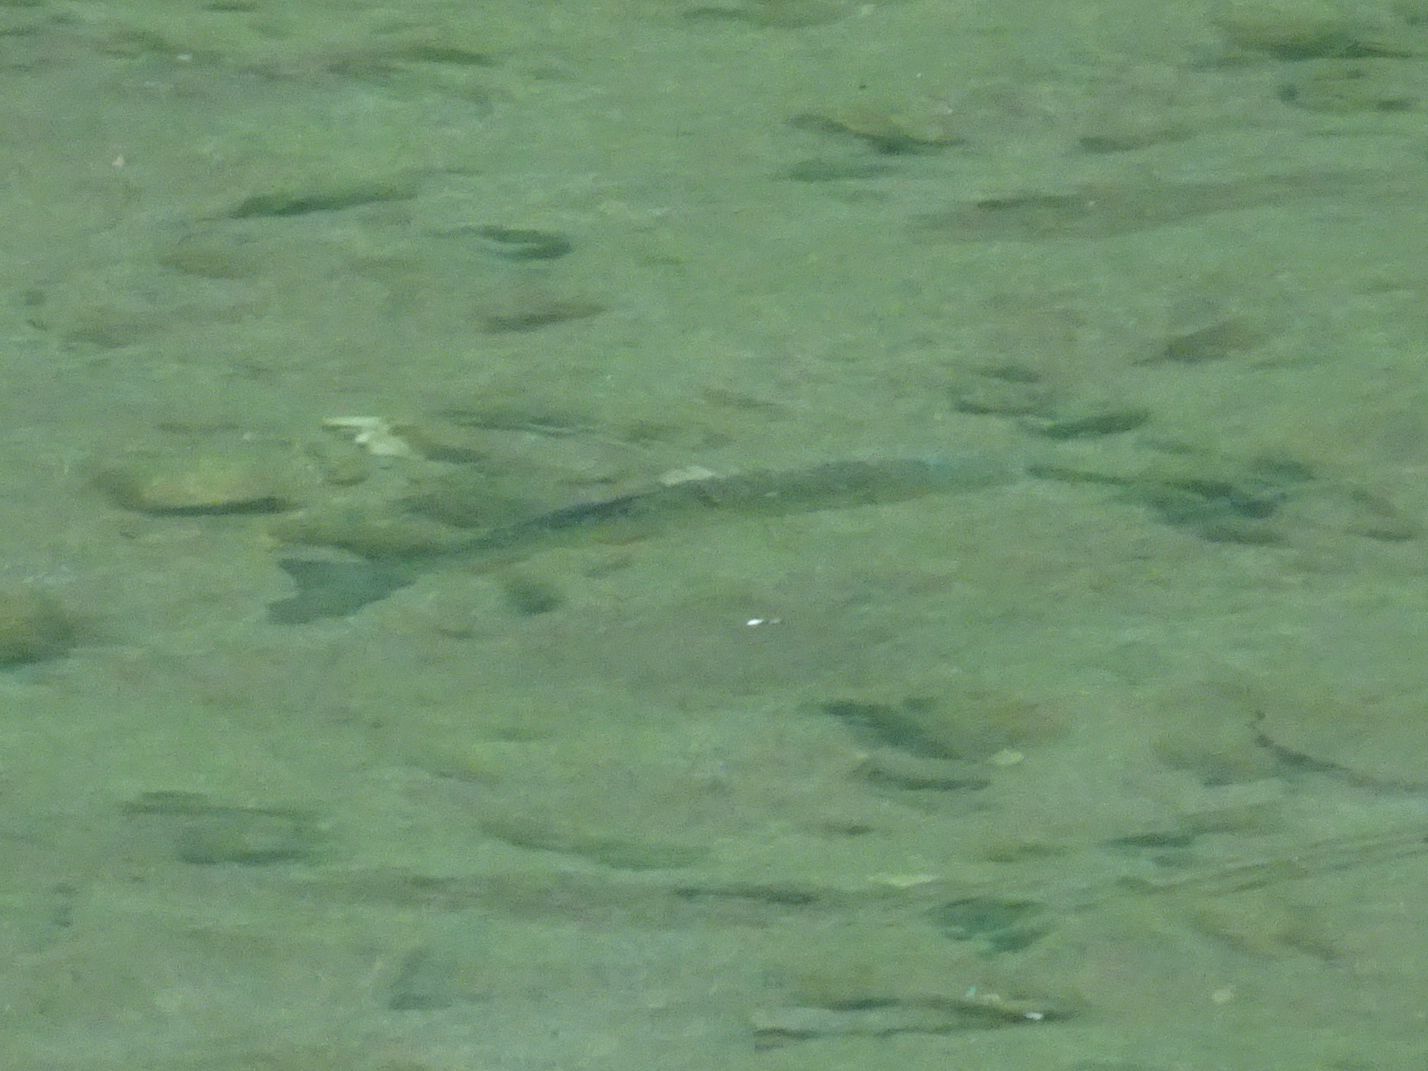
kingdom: Animalia
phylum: Chordata
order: Cypriniformes
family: Cyprinidae
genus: Squalius
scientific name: Squalius cephalus
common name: Chub
